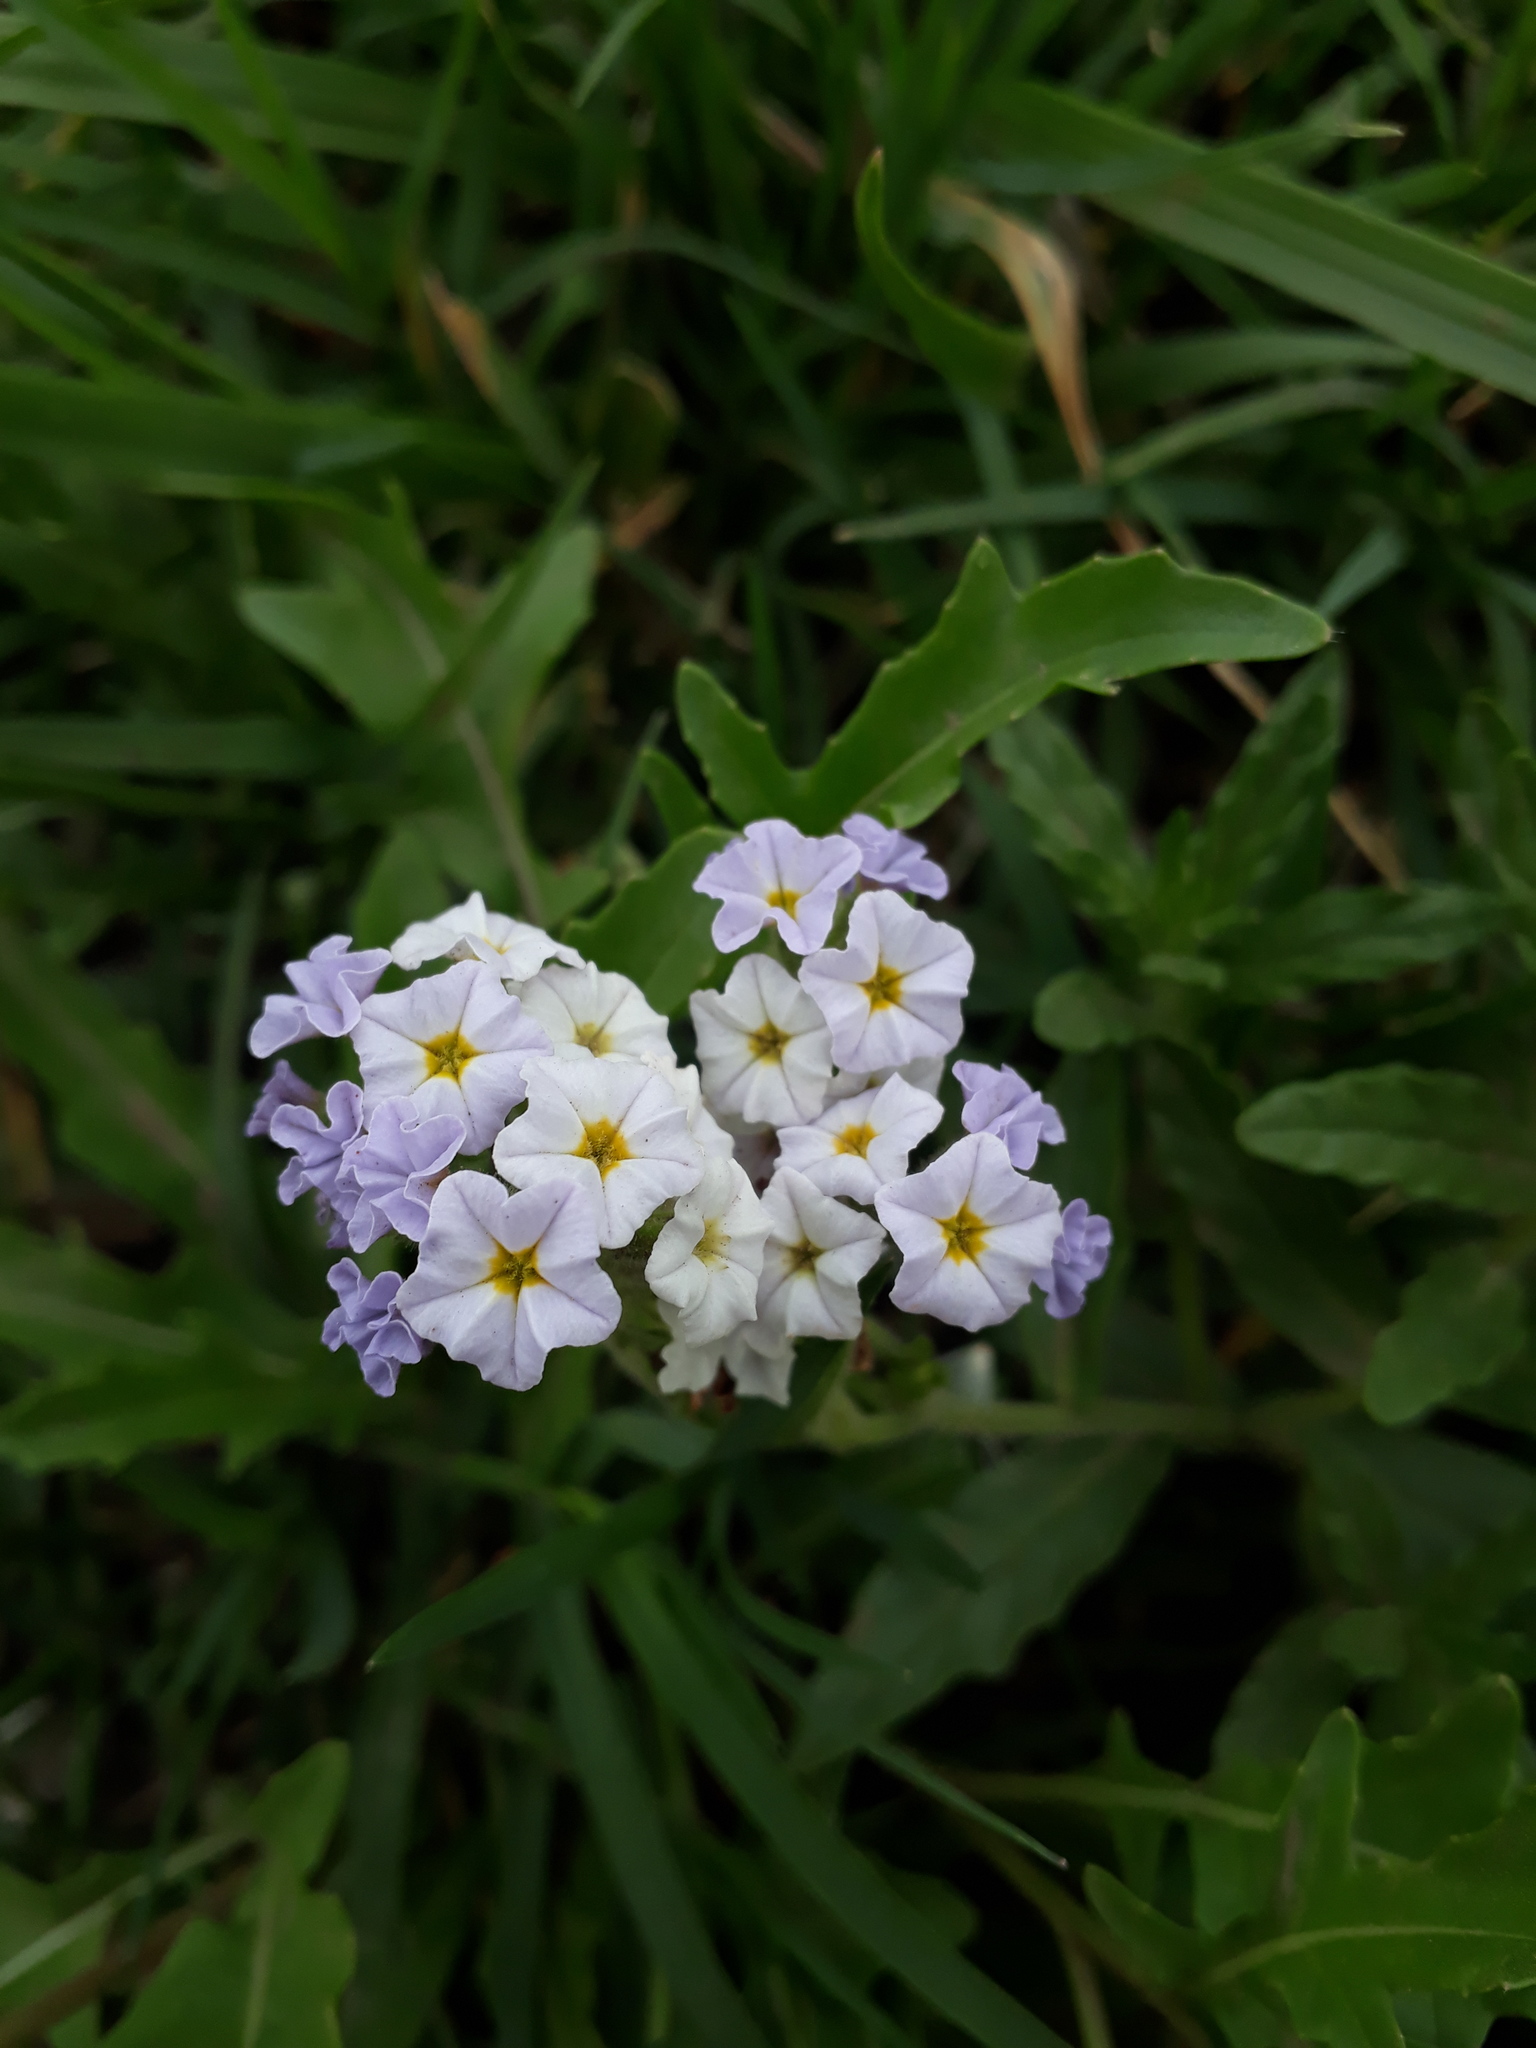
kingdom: Plantae
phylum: Tracheophyta
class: Magnoliopsida
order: Boraginales
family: Heliotropiaceae
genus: Heliotropium
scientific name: Heliotropium amplexicaule
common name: Clasping heliotrope
